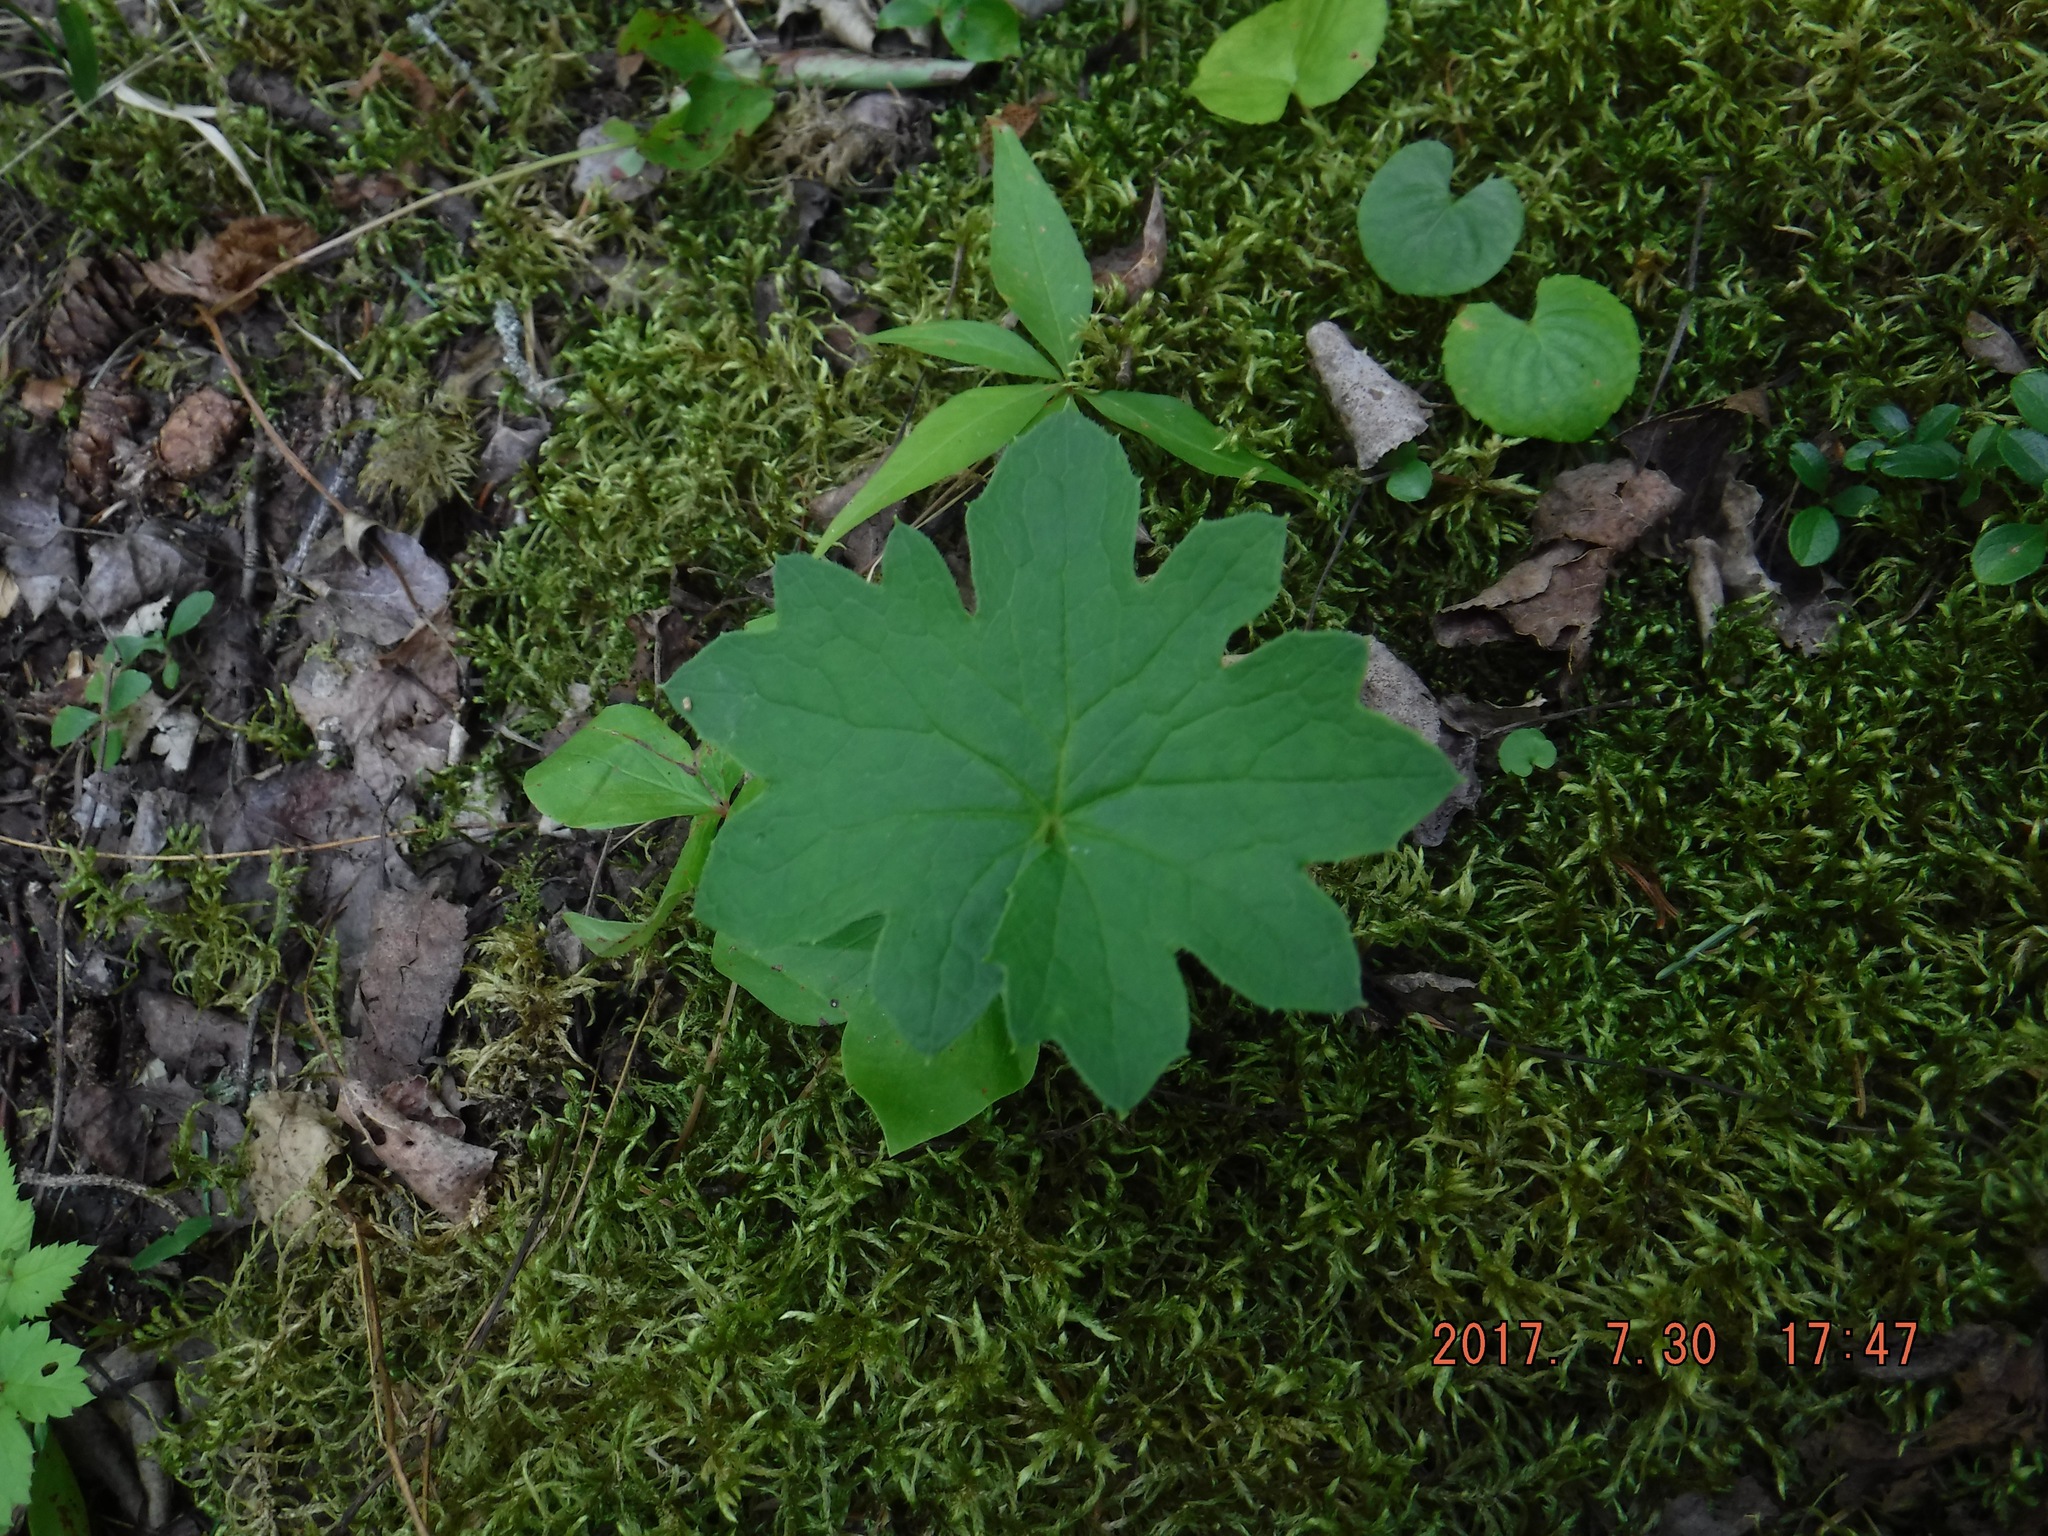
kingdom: Plantae
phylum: Tracheophyta
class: Magnoliopsida
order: Asterales
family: Asteraceae
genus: Petasites
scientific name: Petasites frigidus
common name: Arctic butterbur
